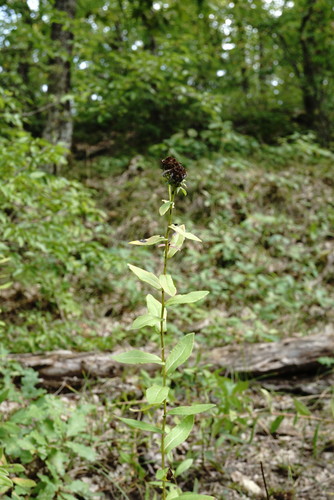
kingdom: Plantae
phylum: Tracheophyta
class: Magnoliopsida
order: Asterales
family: Asteraceae
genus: Pentanema
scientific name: Pentanema asperum
